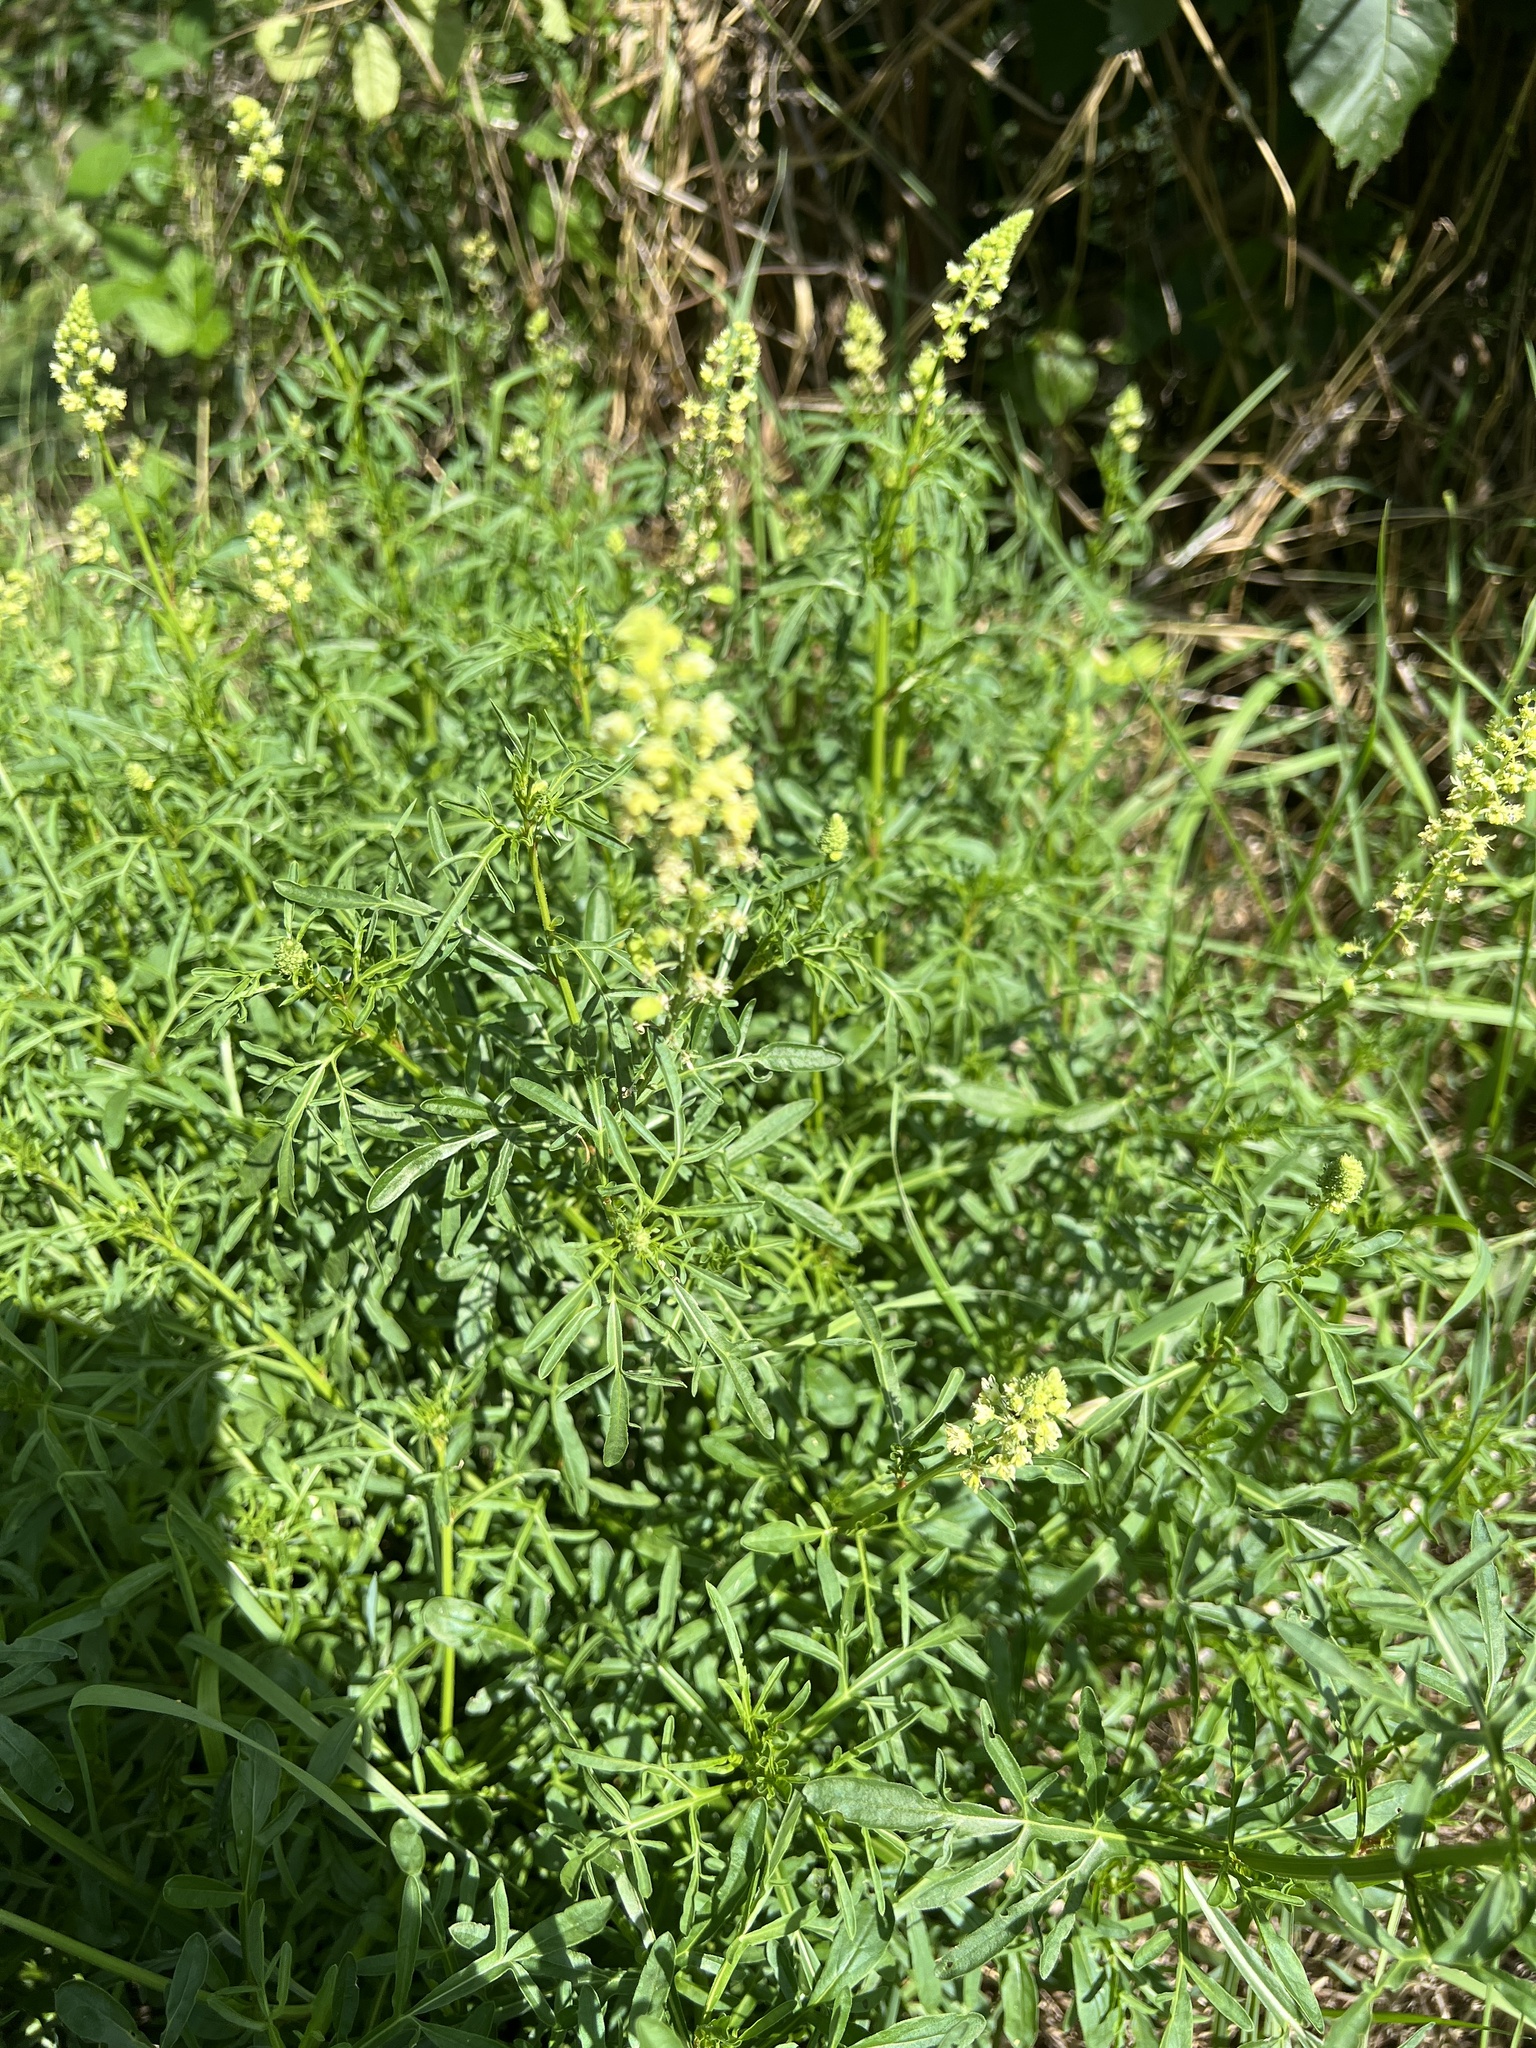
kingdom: Plantae
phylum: Tracheophyta
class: Magnoliopsida
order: Brassicales
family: Resedaceae
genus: Reseda
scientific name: Reseda lutea
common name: Wild mignonette
